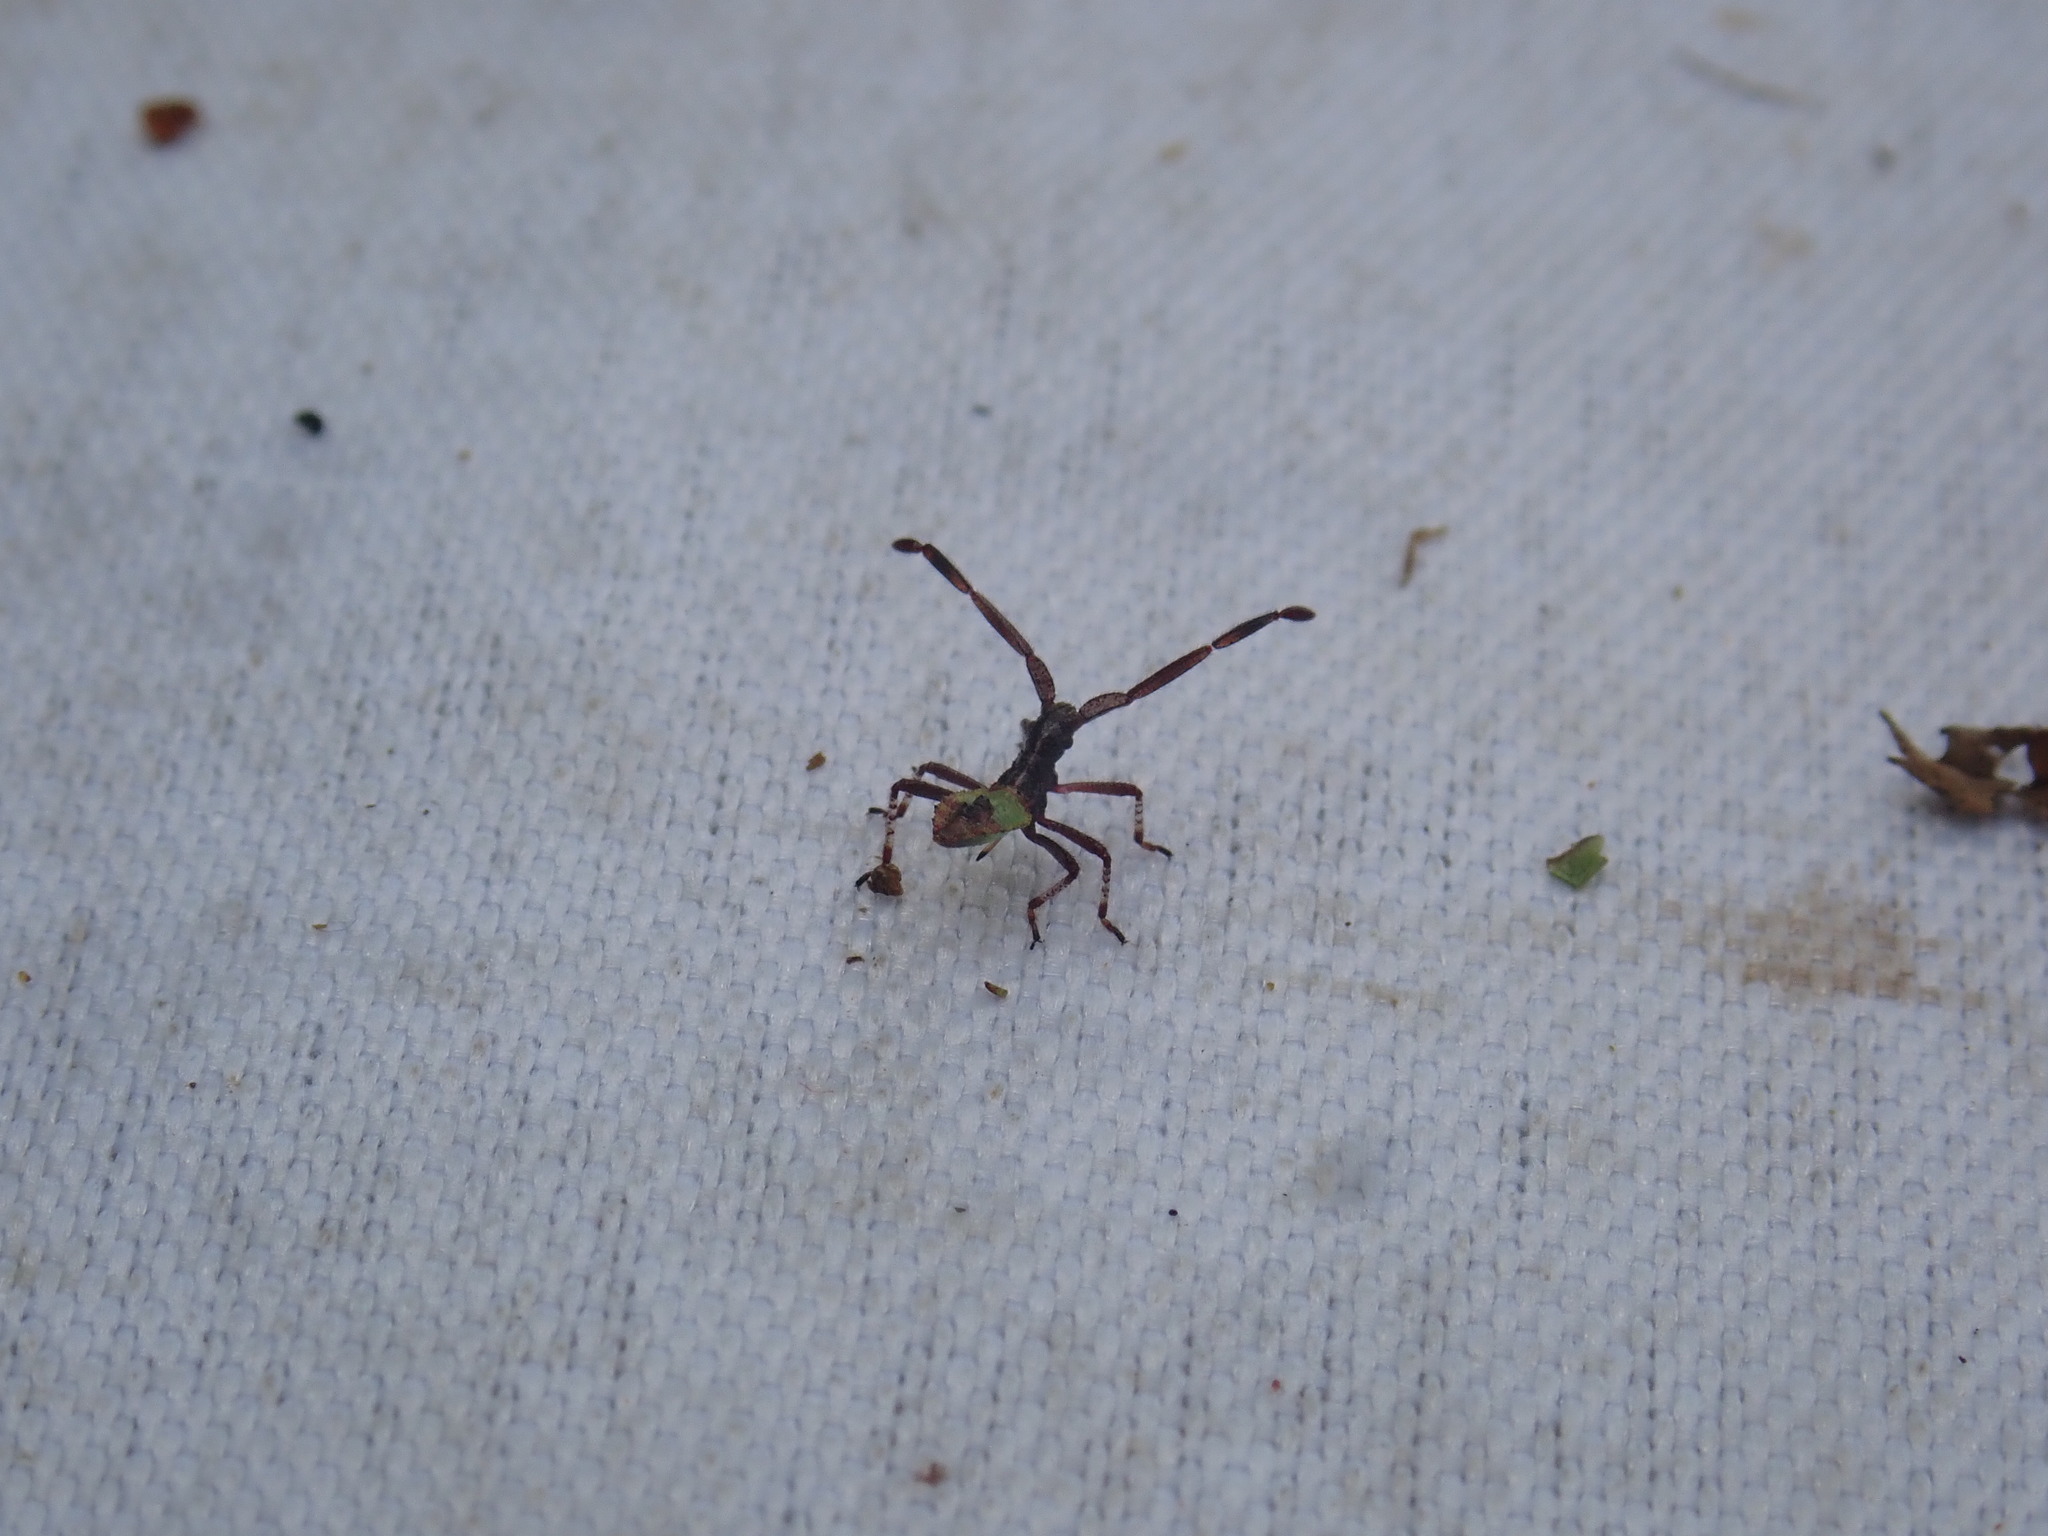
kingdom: Animalia
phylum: Arthropoda
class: Insecta
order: Hemiptera
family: Coreidae
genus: Gonocerus
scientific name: Gonocerus acuteangulatus
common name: Box bug
